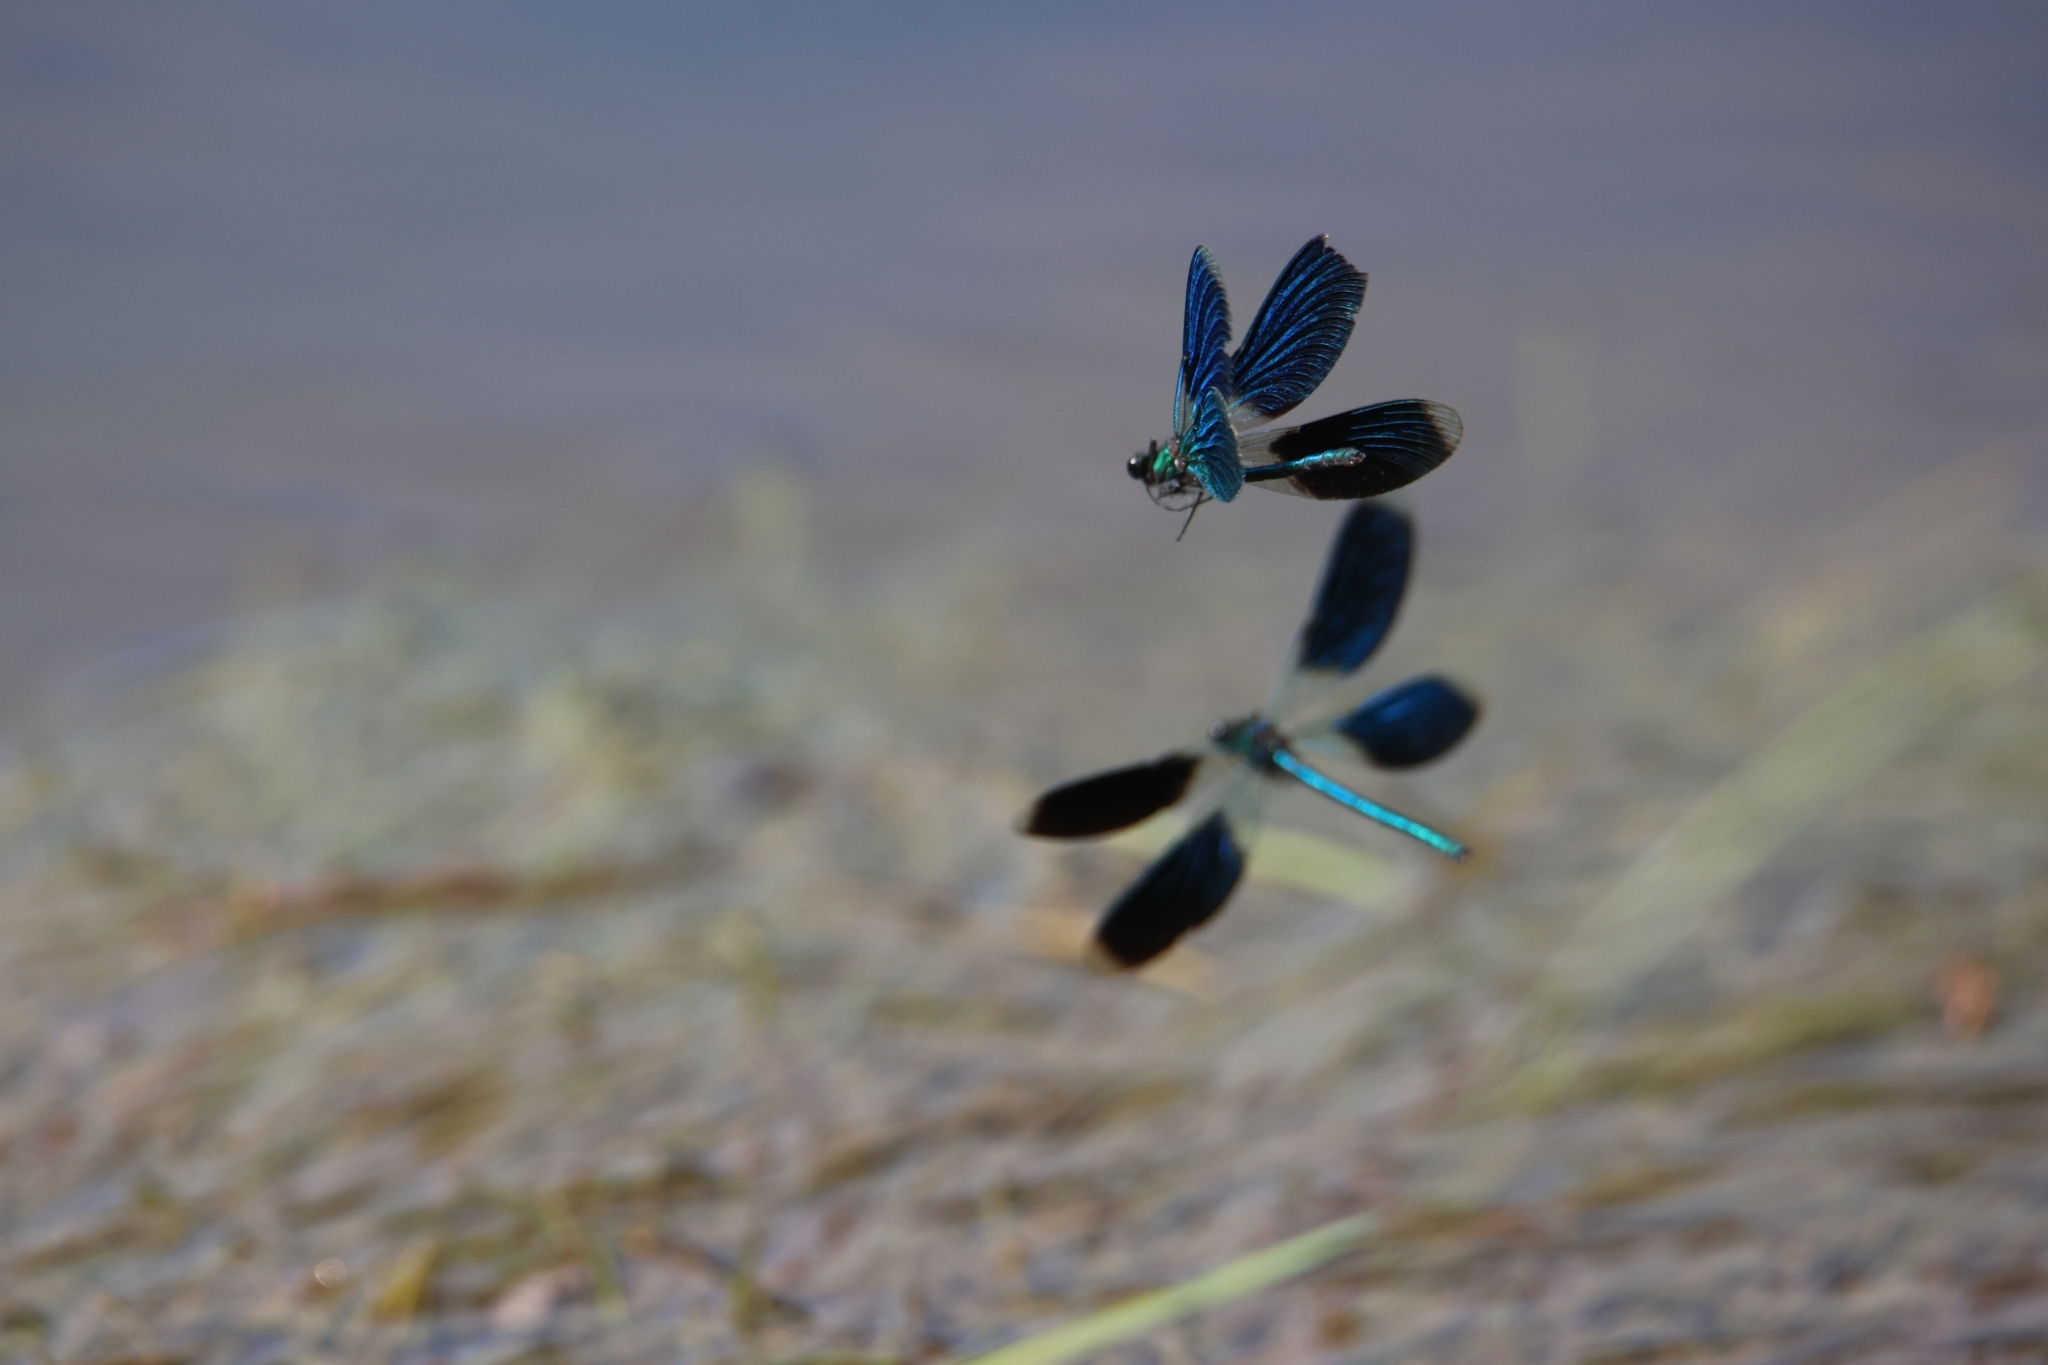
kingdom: Animalia
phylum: Arthropoda
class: Insecta
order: Odonata
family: Calopterygidae
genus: Calopteryx
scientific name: Calopteryx splendens
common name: Banded demoiselle
